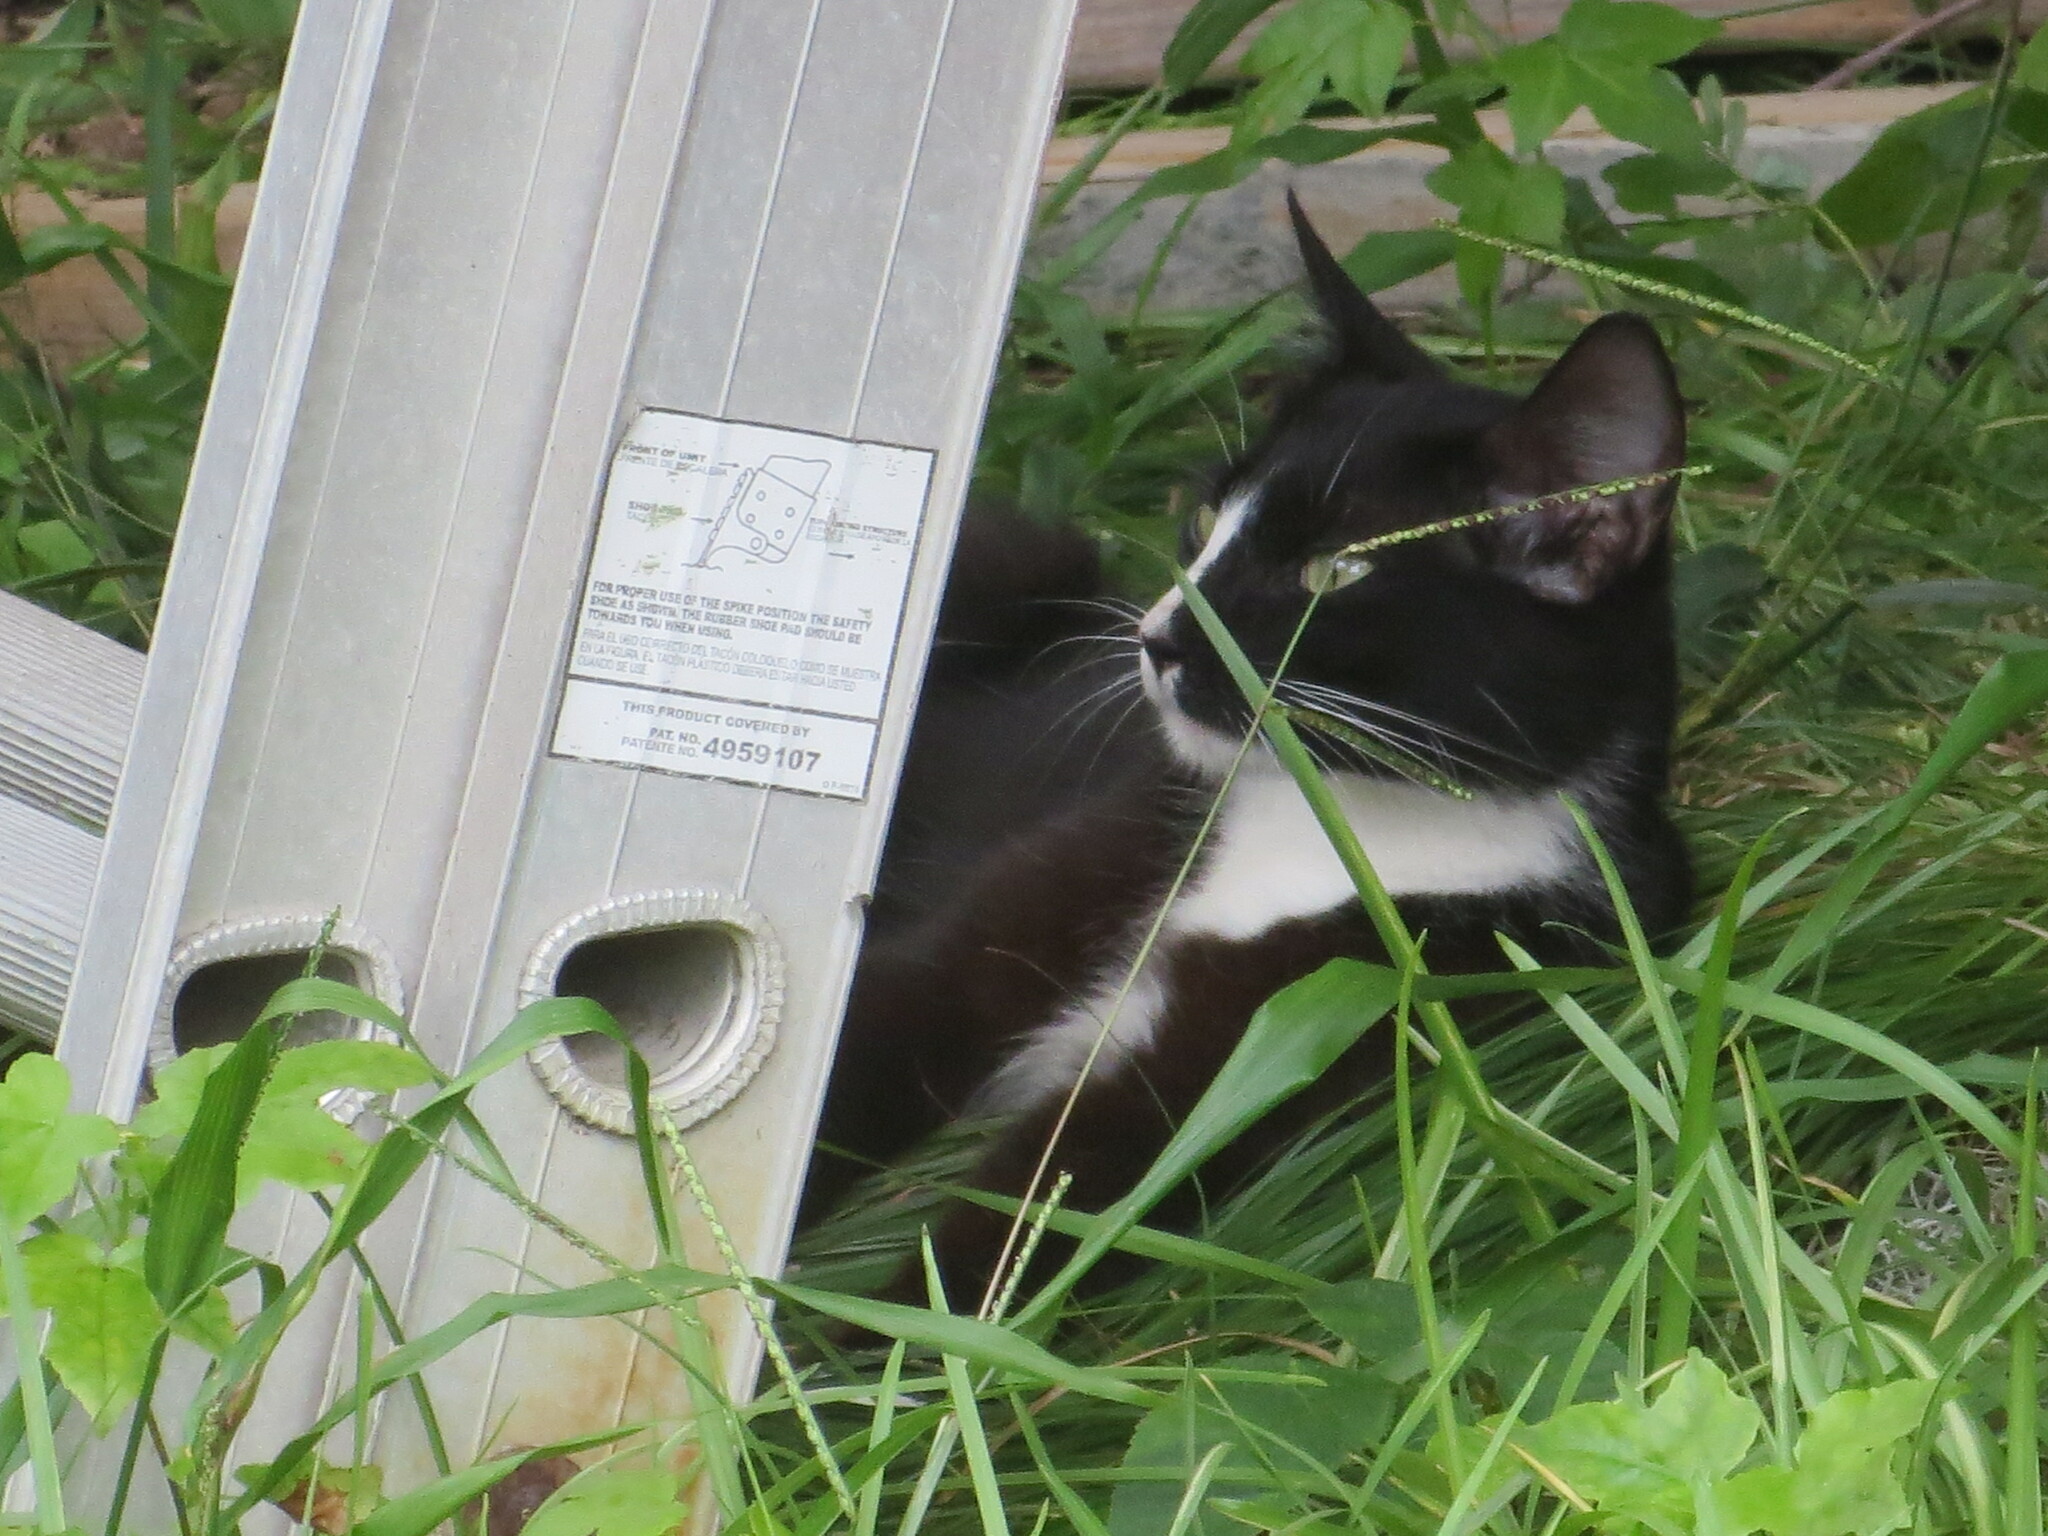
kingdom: Animalia
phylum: Chordata
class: Mammalia
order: Carnivora
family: Felidae
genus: Felis
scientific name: Felis catus
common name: Domestic cat
